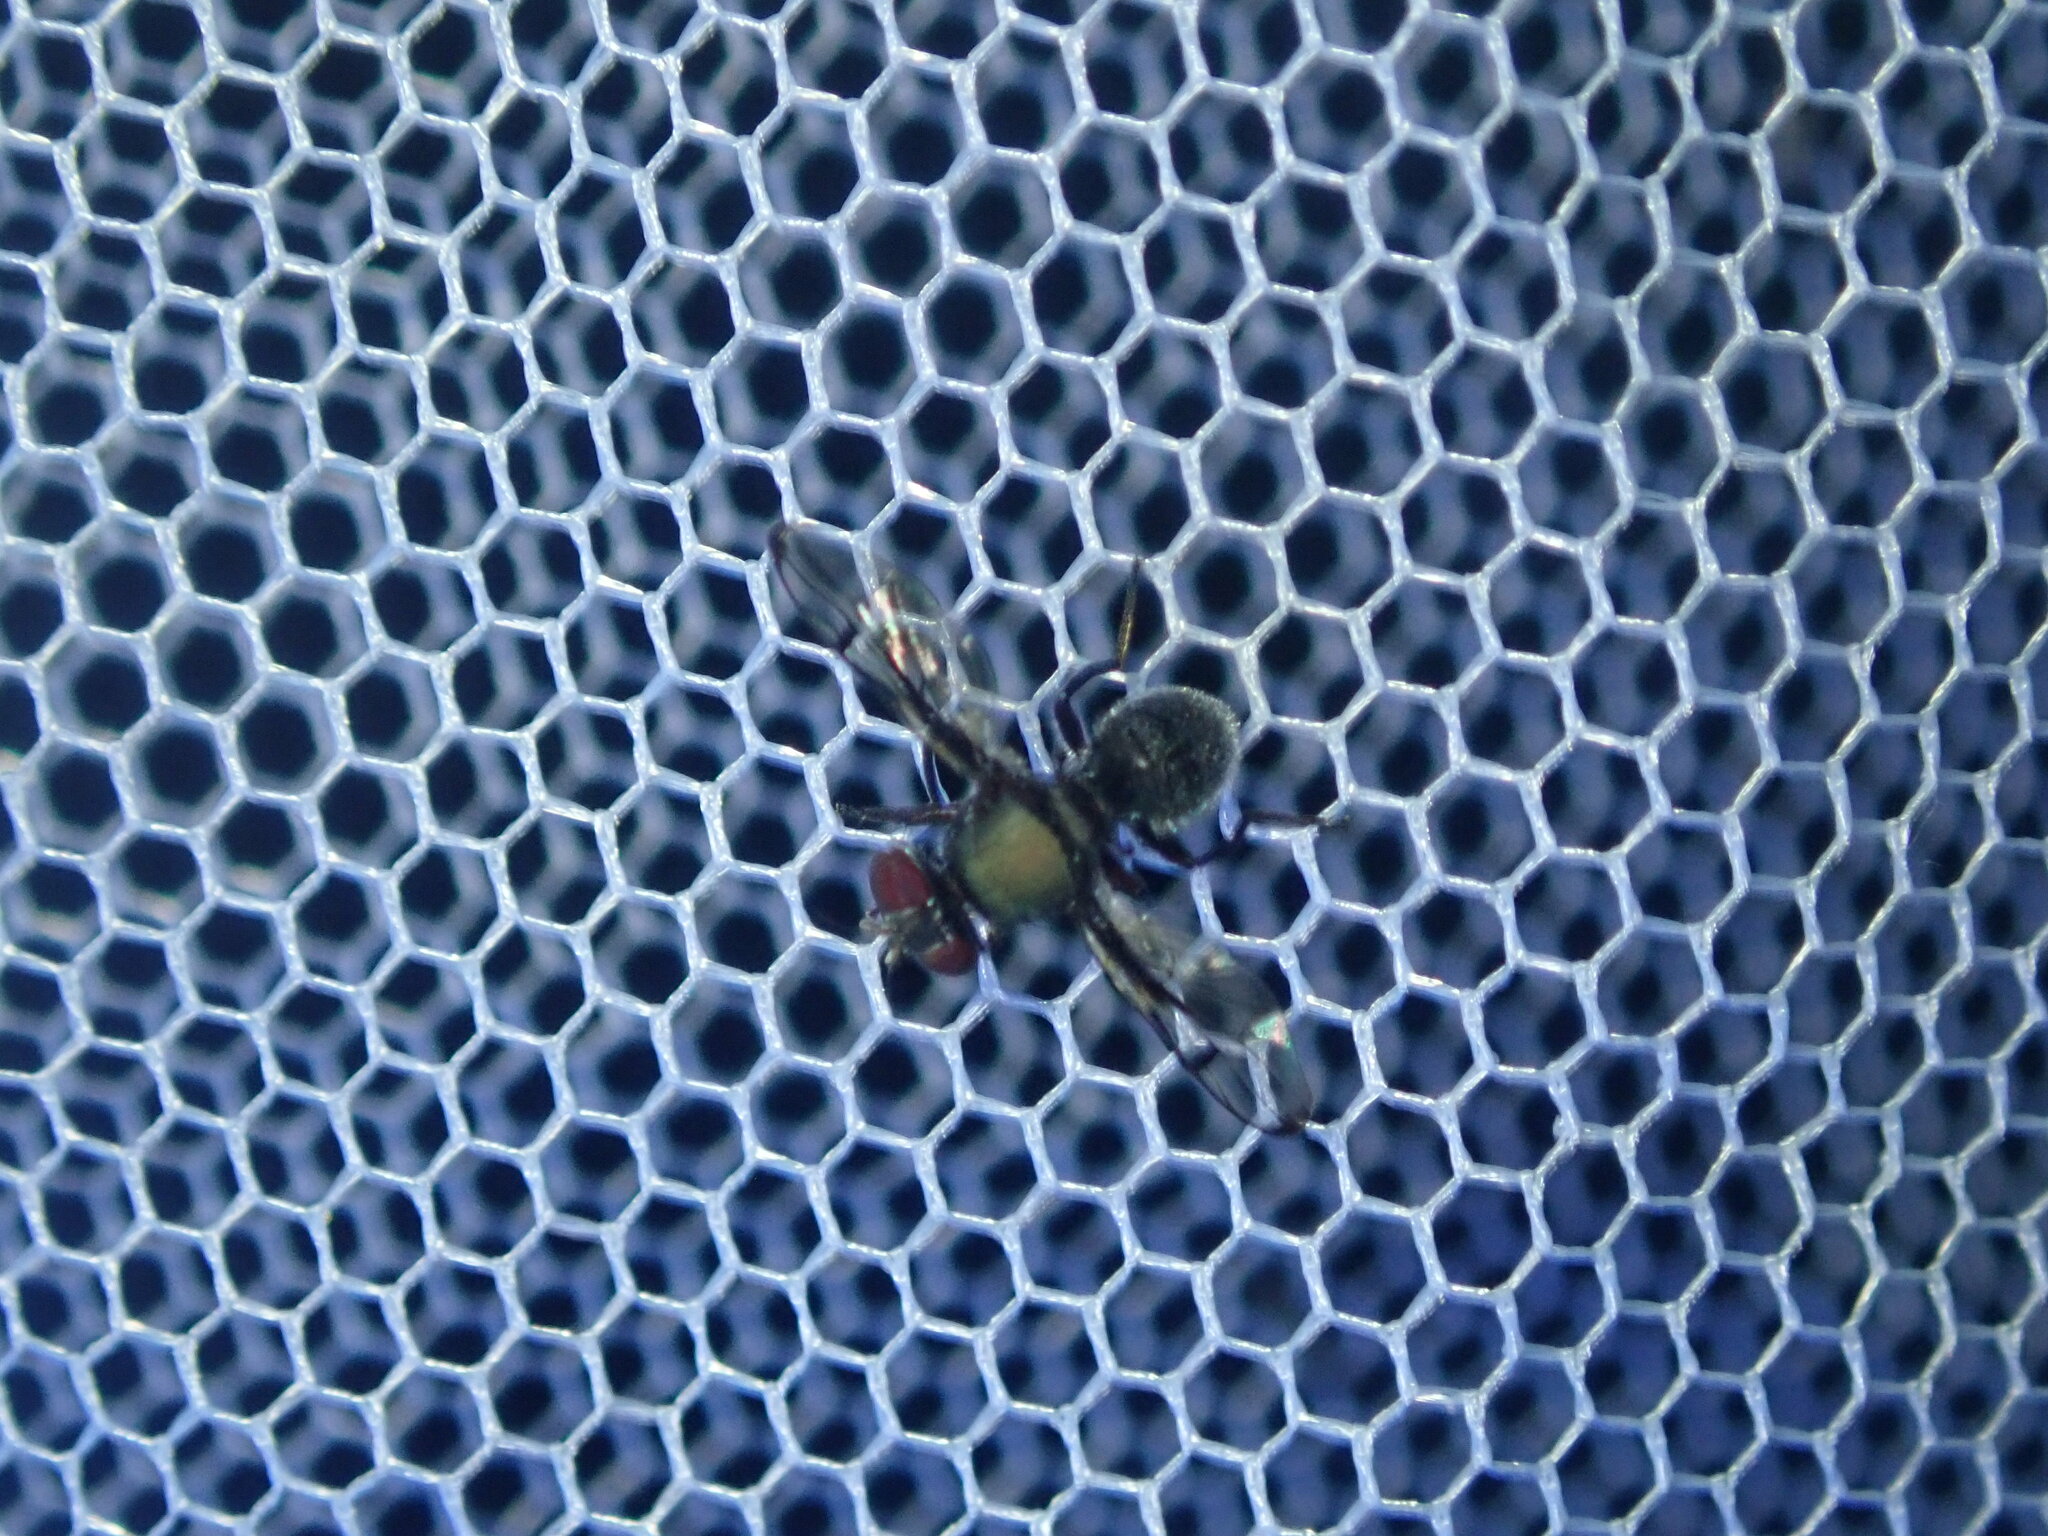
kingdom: Animalia
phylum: Arthropoda
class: Insecta
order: Diptera
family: Platystomatidae
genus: Pogonortalis
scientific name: Pogonortalis doclea
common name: Boatman fly
